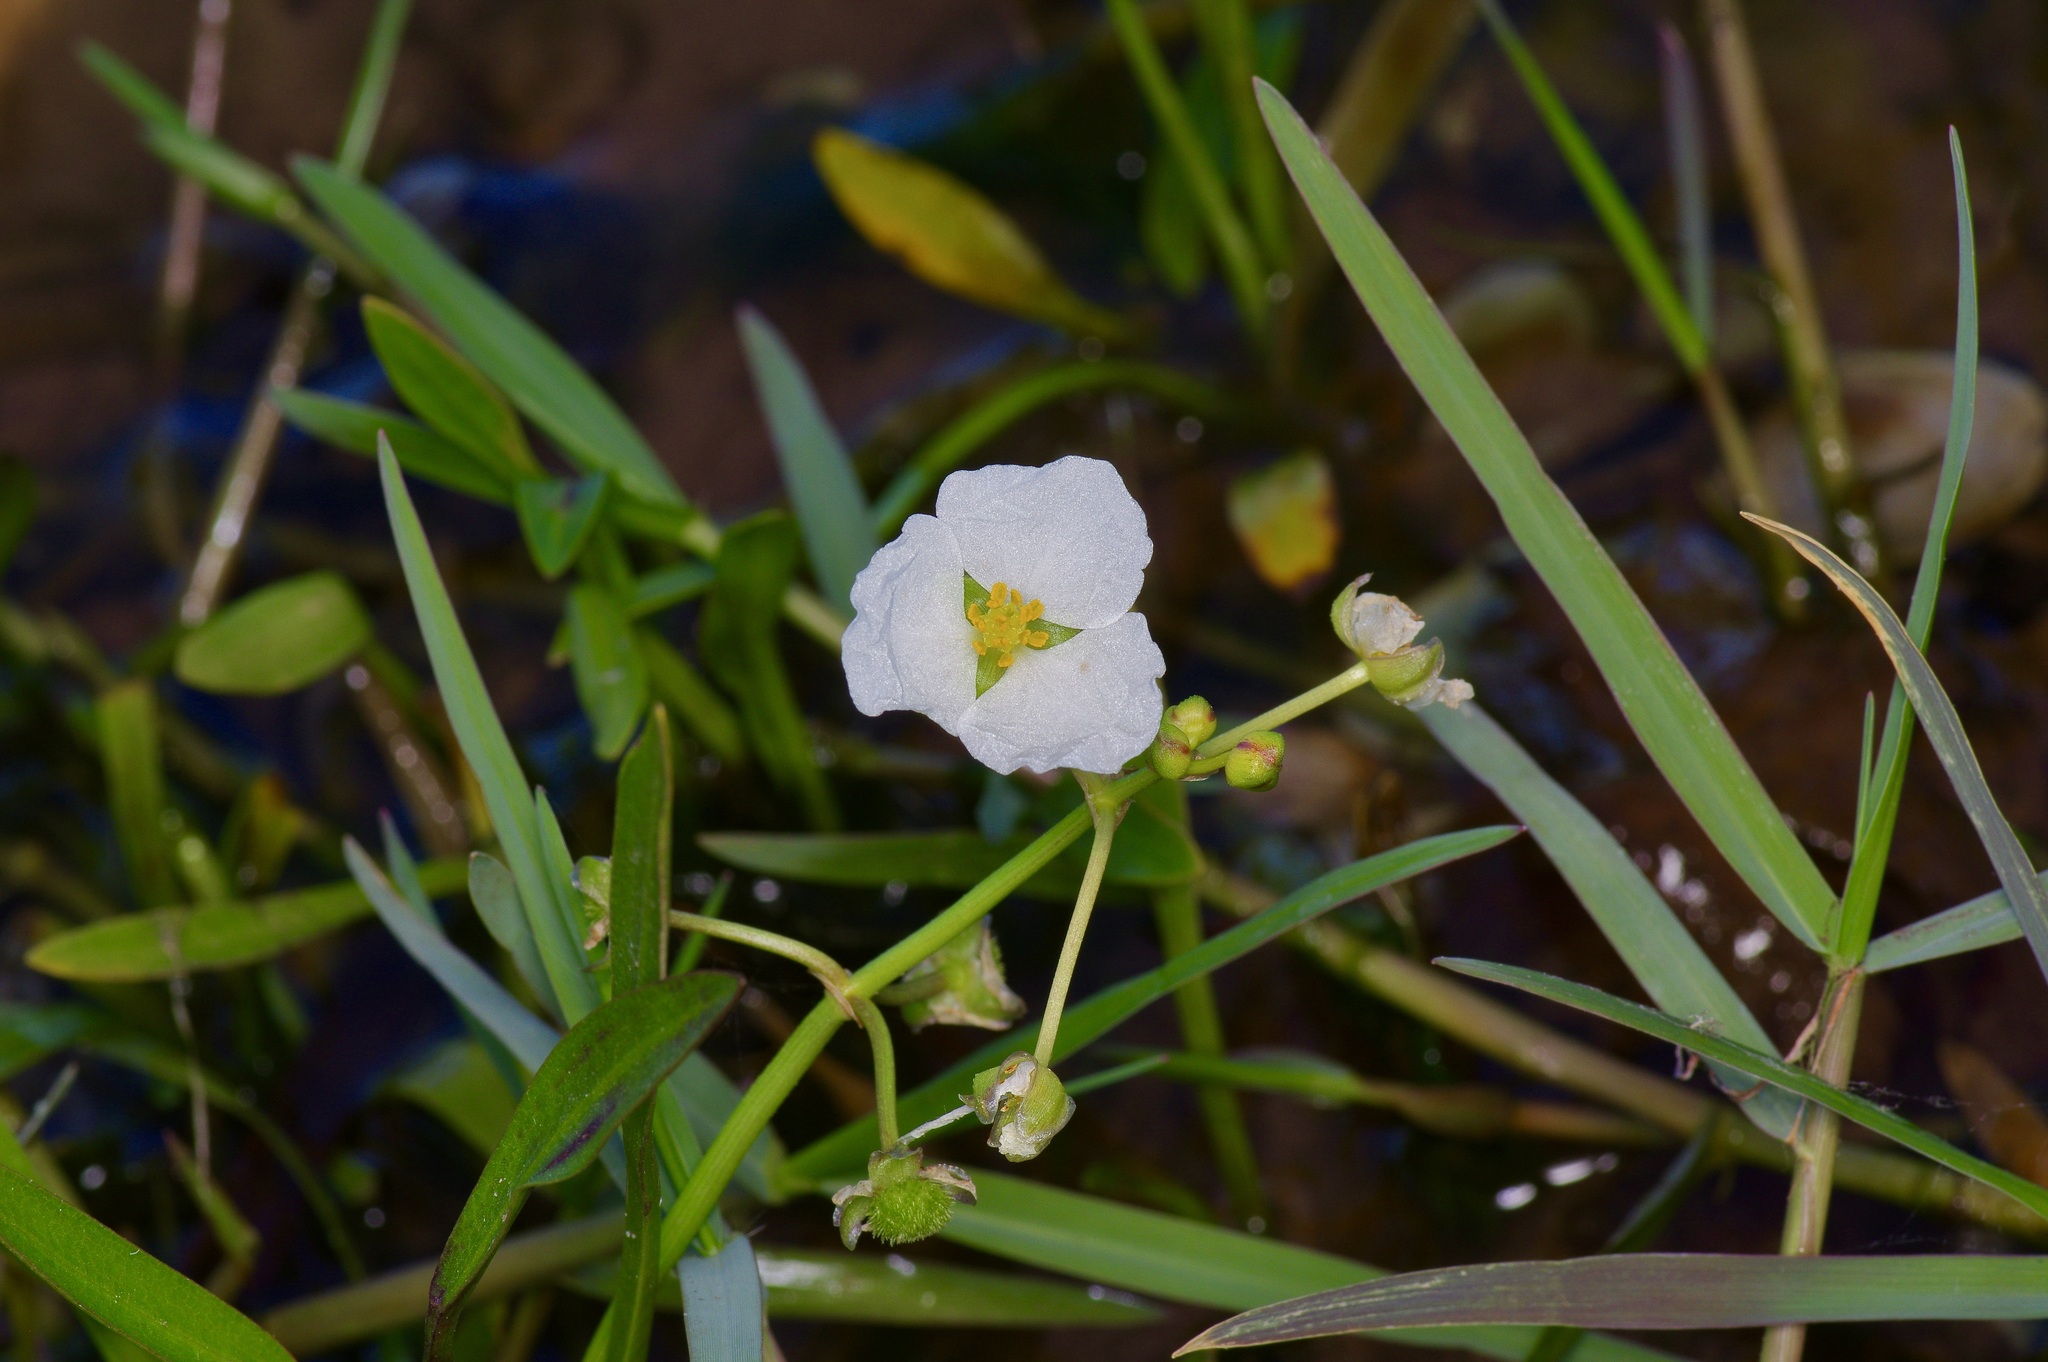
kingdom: Plantae
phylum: Tracheophyta
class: Liliopsida
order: Alismatales
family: Alismataceae
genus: Sagittaria
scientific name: Sagittaria platyphylla
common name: Broad-leaf arrowhead
